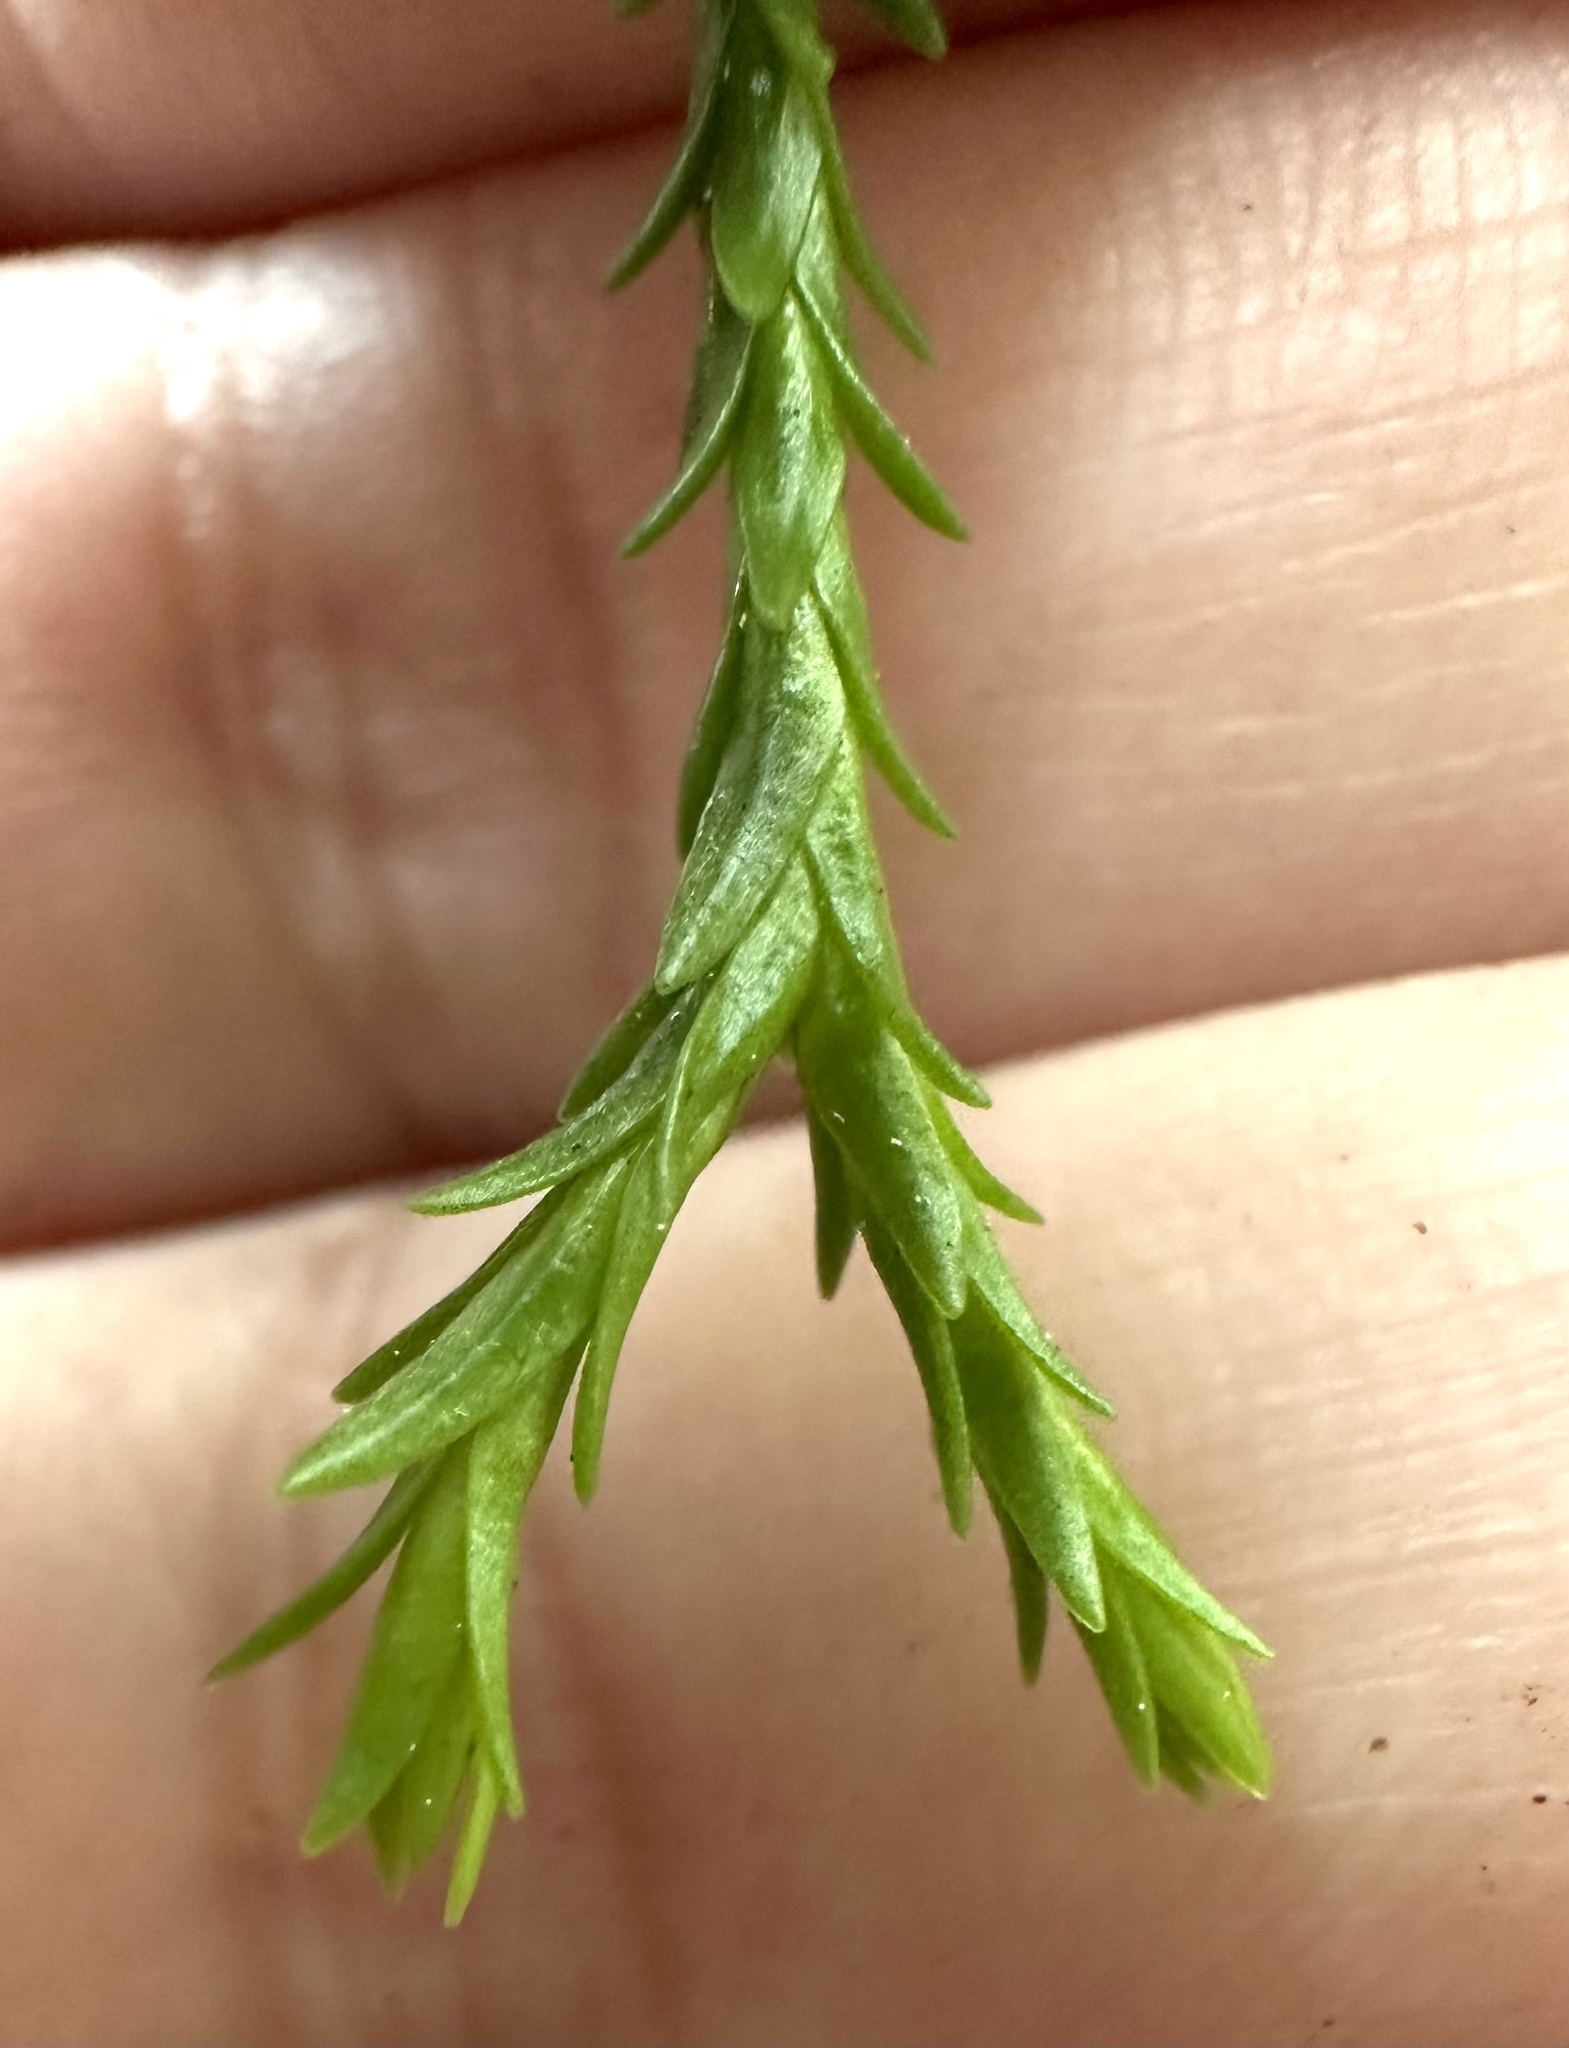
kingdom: Plantae
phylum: Tracheophyta
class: Lycopodiopsida
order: Lycopodiales
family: Lycopodiaceae
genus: Phlegmariurus
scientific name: Phlegmariurus varius
